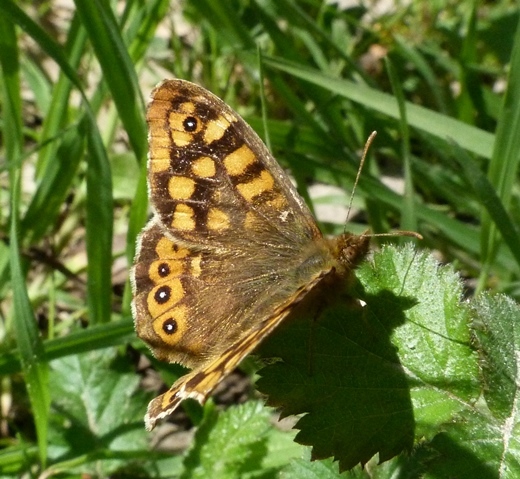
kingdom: Animalia
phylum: Arthropoda
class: Insecta
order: Lepidoptera
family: Nymphalidae
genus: Pararge
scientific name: Pararge aegeria
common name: Speckled wood
